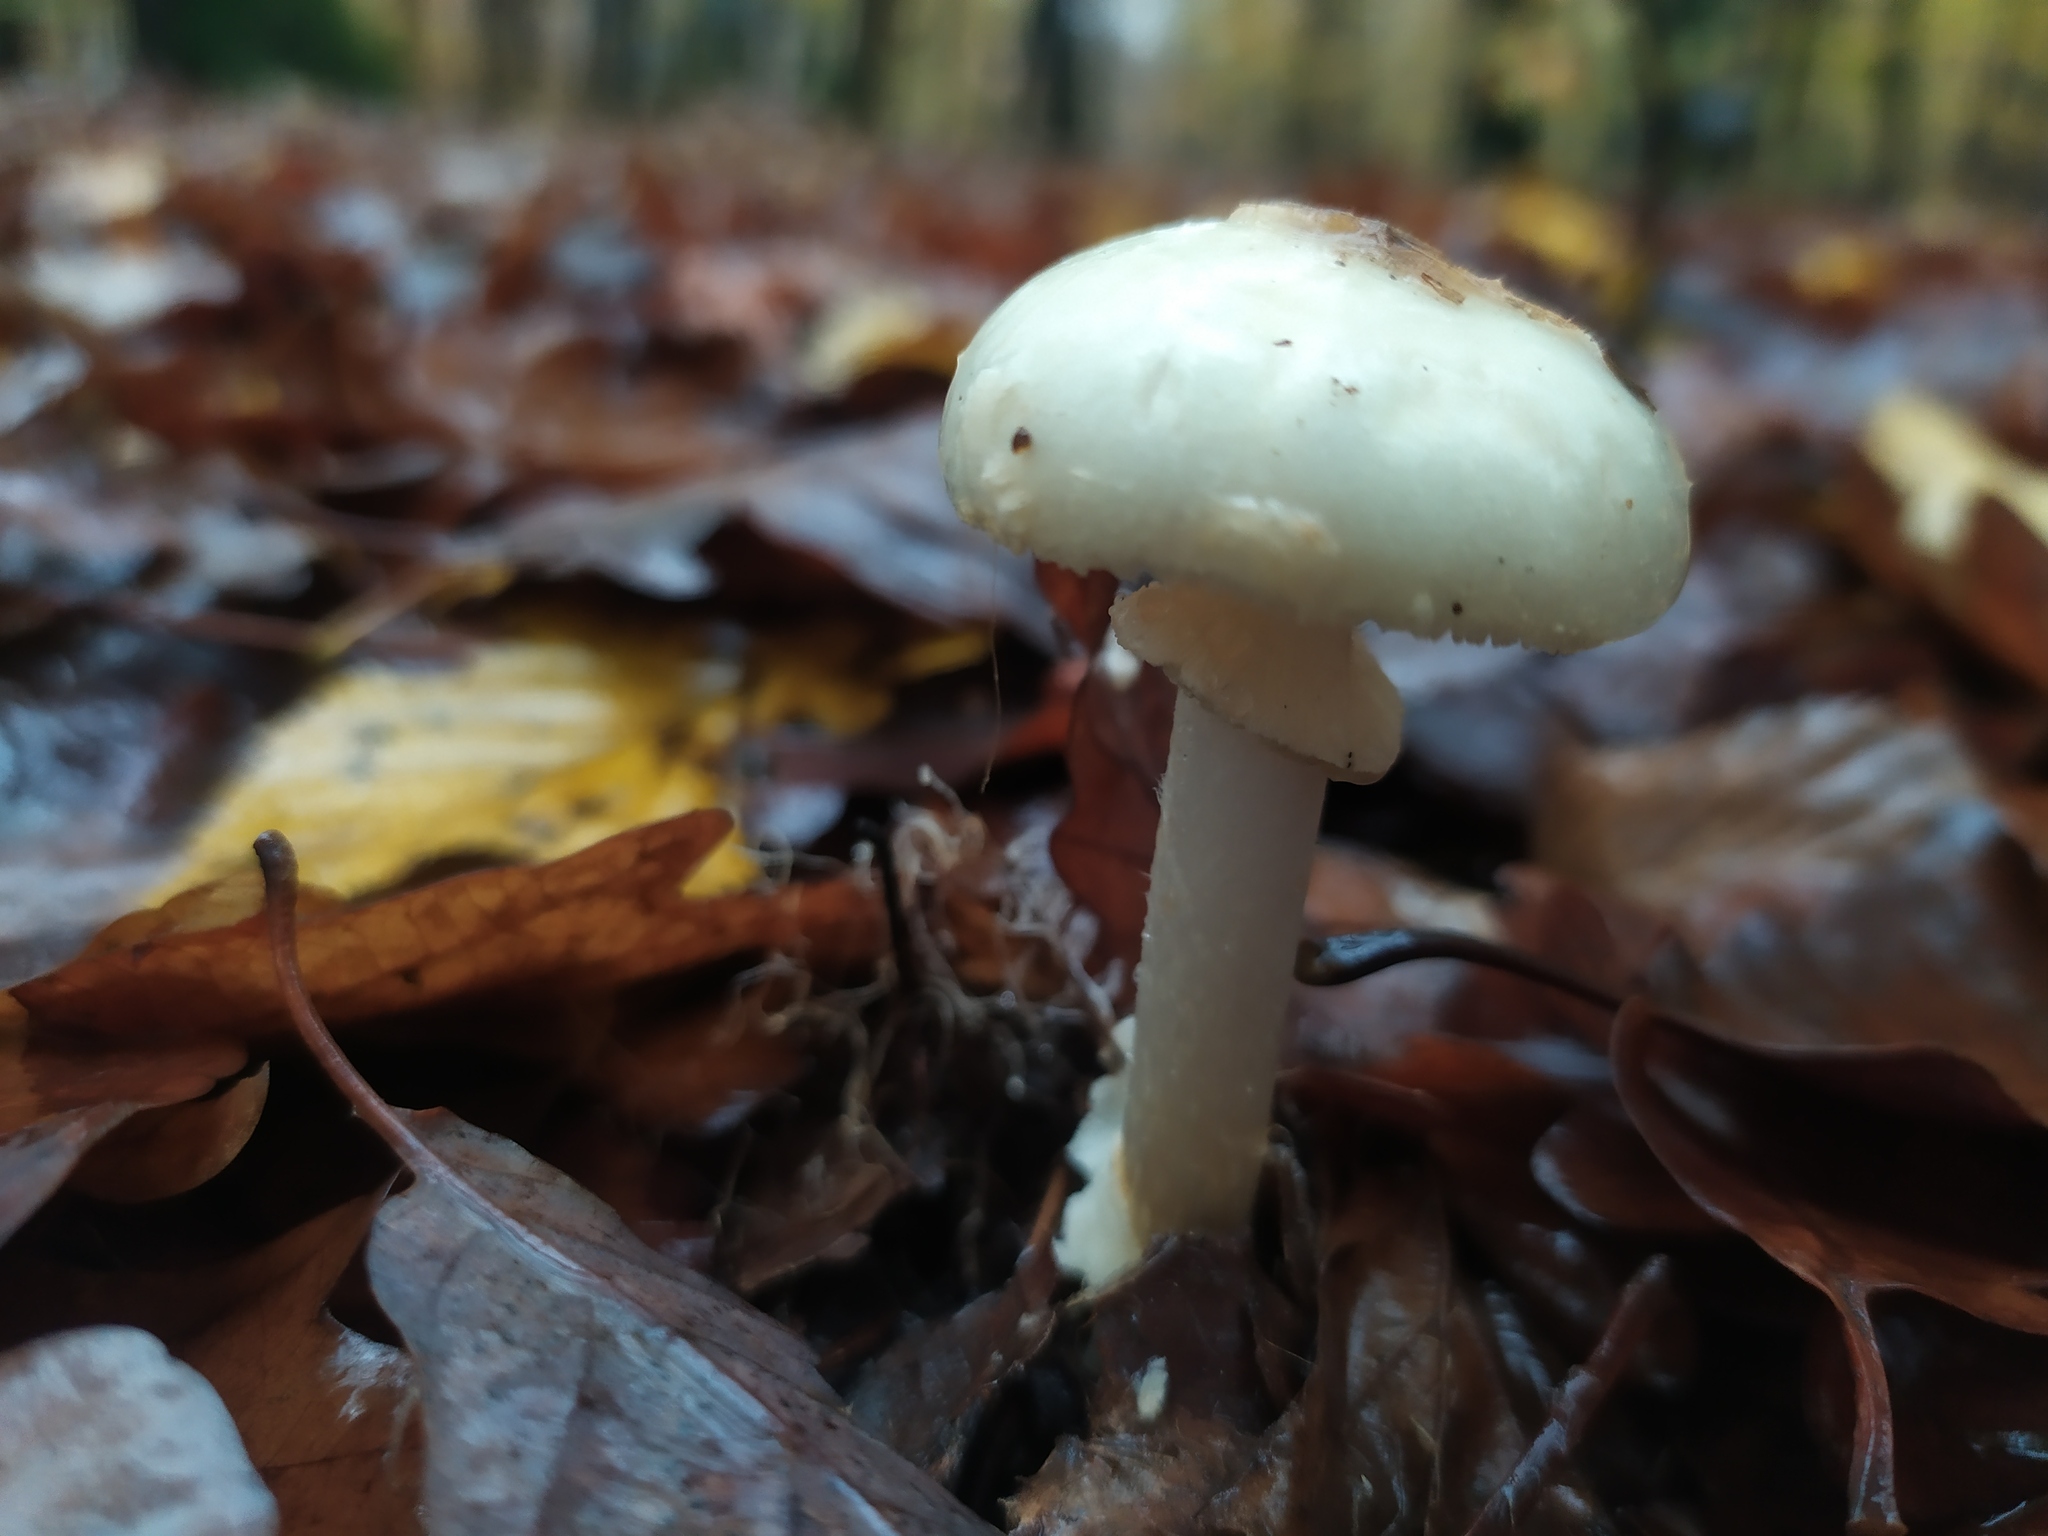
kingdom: Fungi
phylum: Basidiomycota
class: Agaricomycetes
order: Agaricales
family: Amanitaceae
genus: Amanita
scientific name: Amanita citrina
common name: False death-cap
